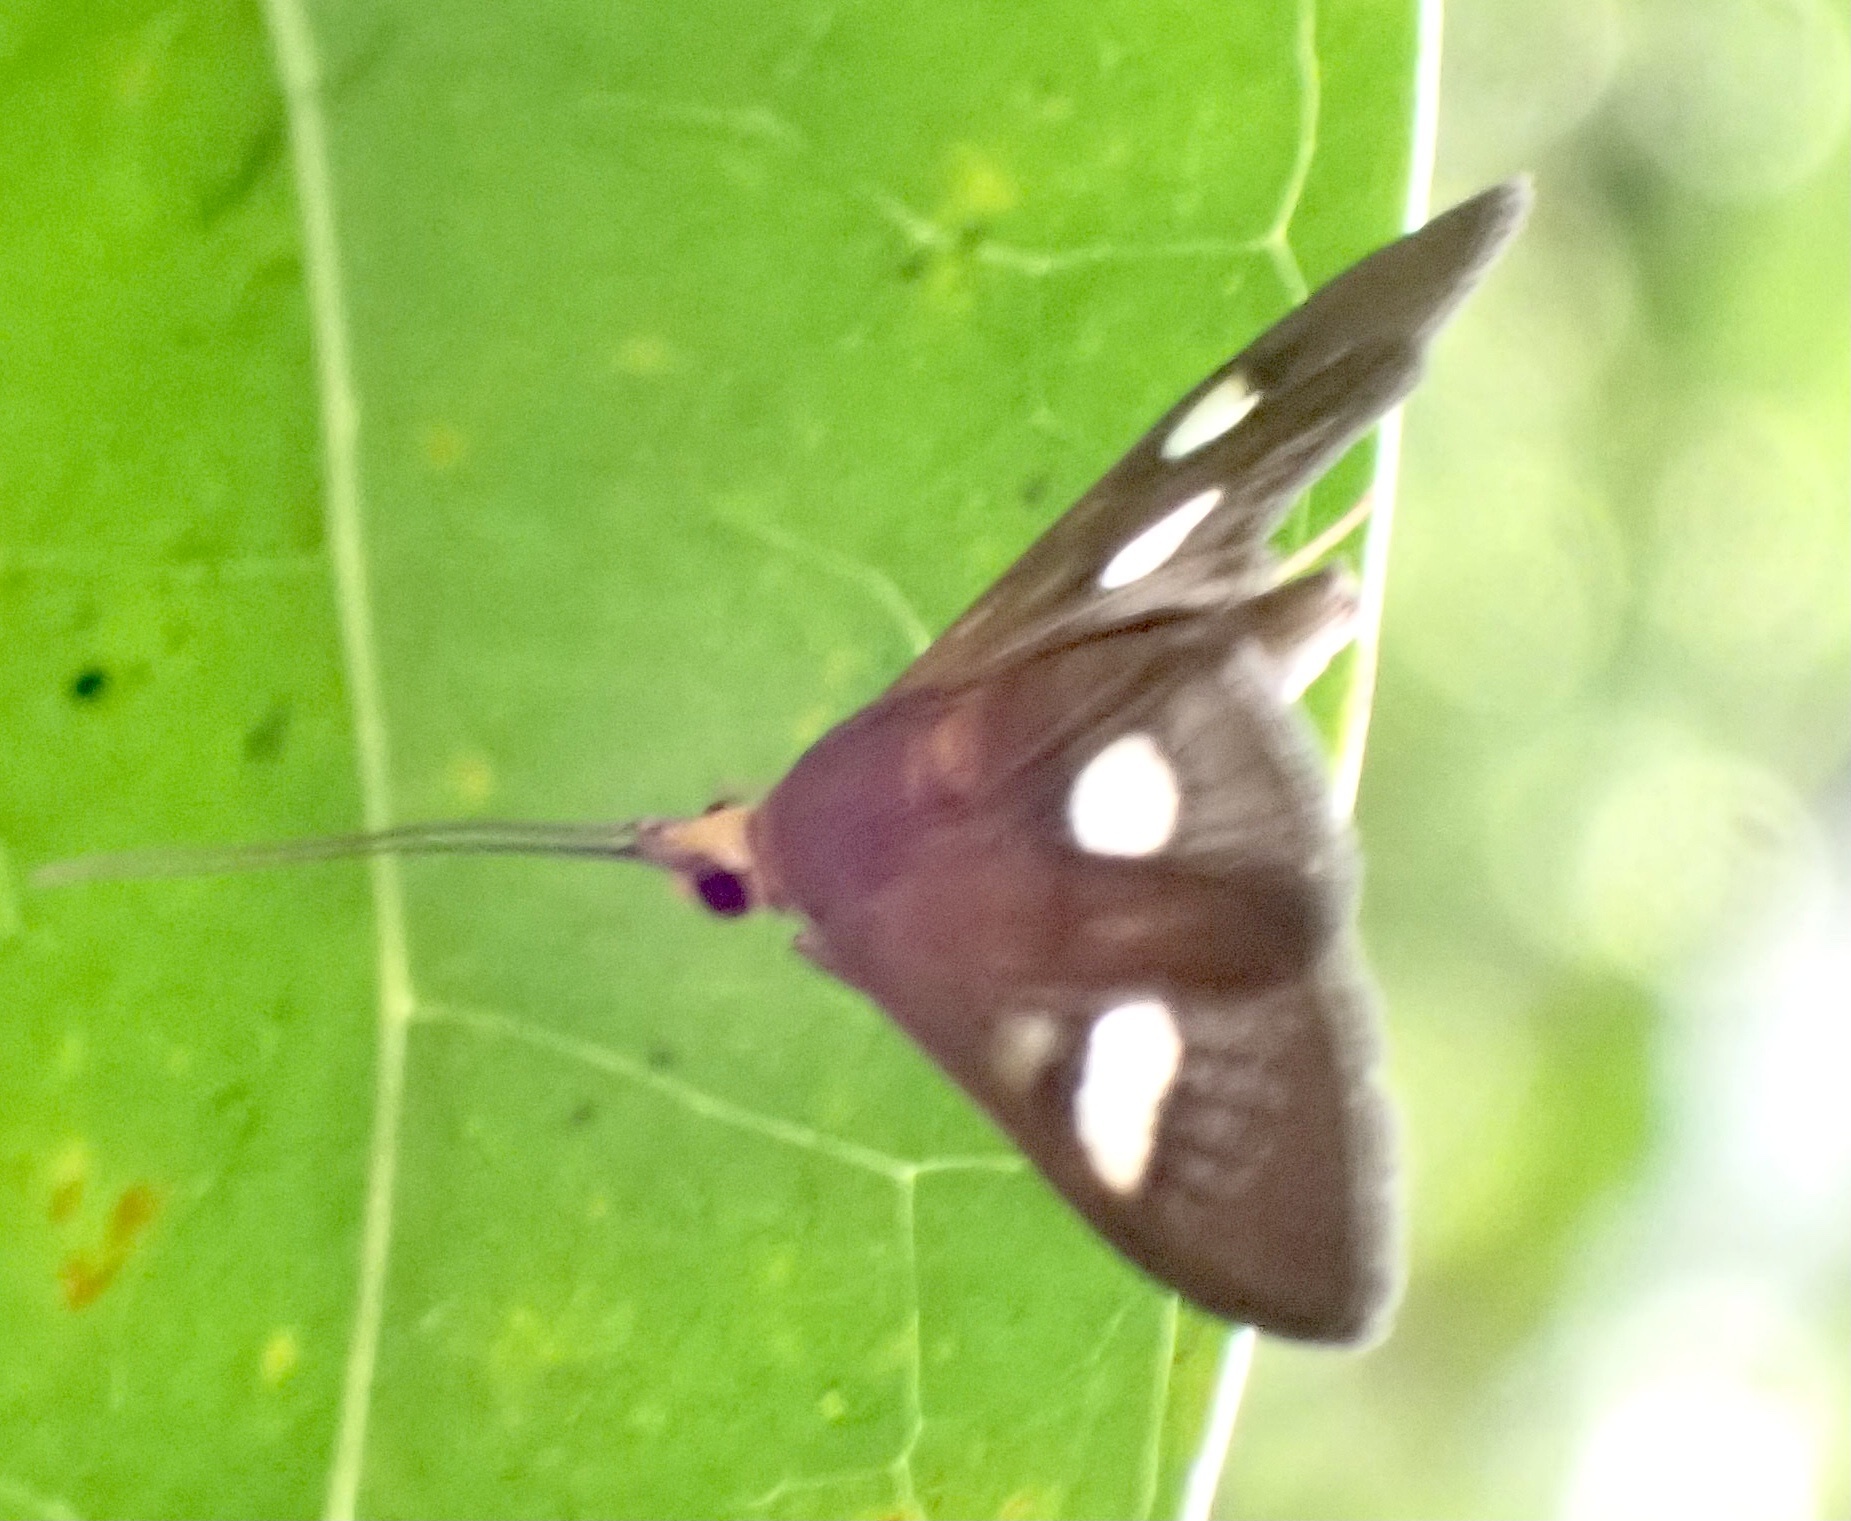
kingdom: Animalia
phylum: Arthropoda
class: Insecta
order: Lepidoptera
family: Crambidae
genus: Ulopeza
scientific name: Ulopeza flavicepsalis
